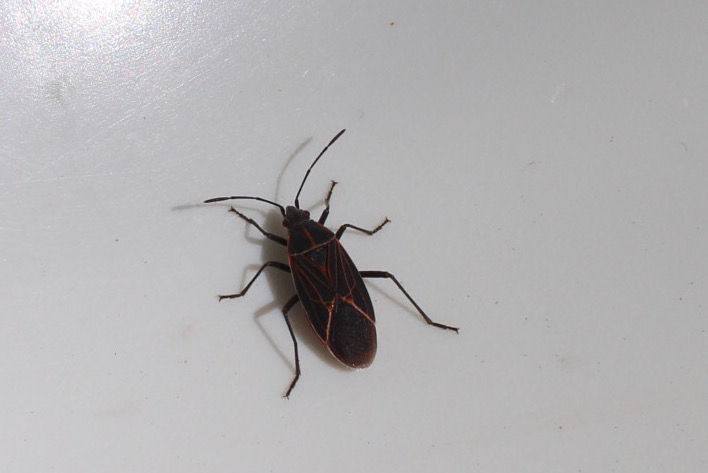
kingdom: Animalia
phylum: Arthropoda
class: Insecta
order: Hemiptera
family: Rhopalidae
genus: Boisea
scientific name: Boisea rubrolineata
